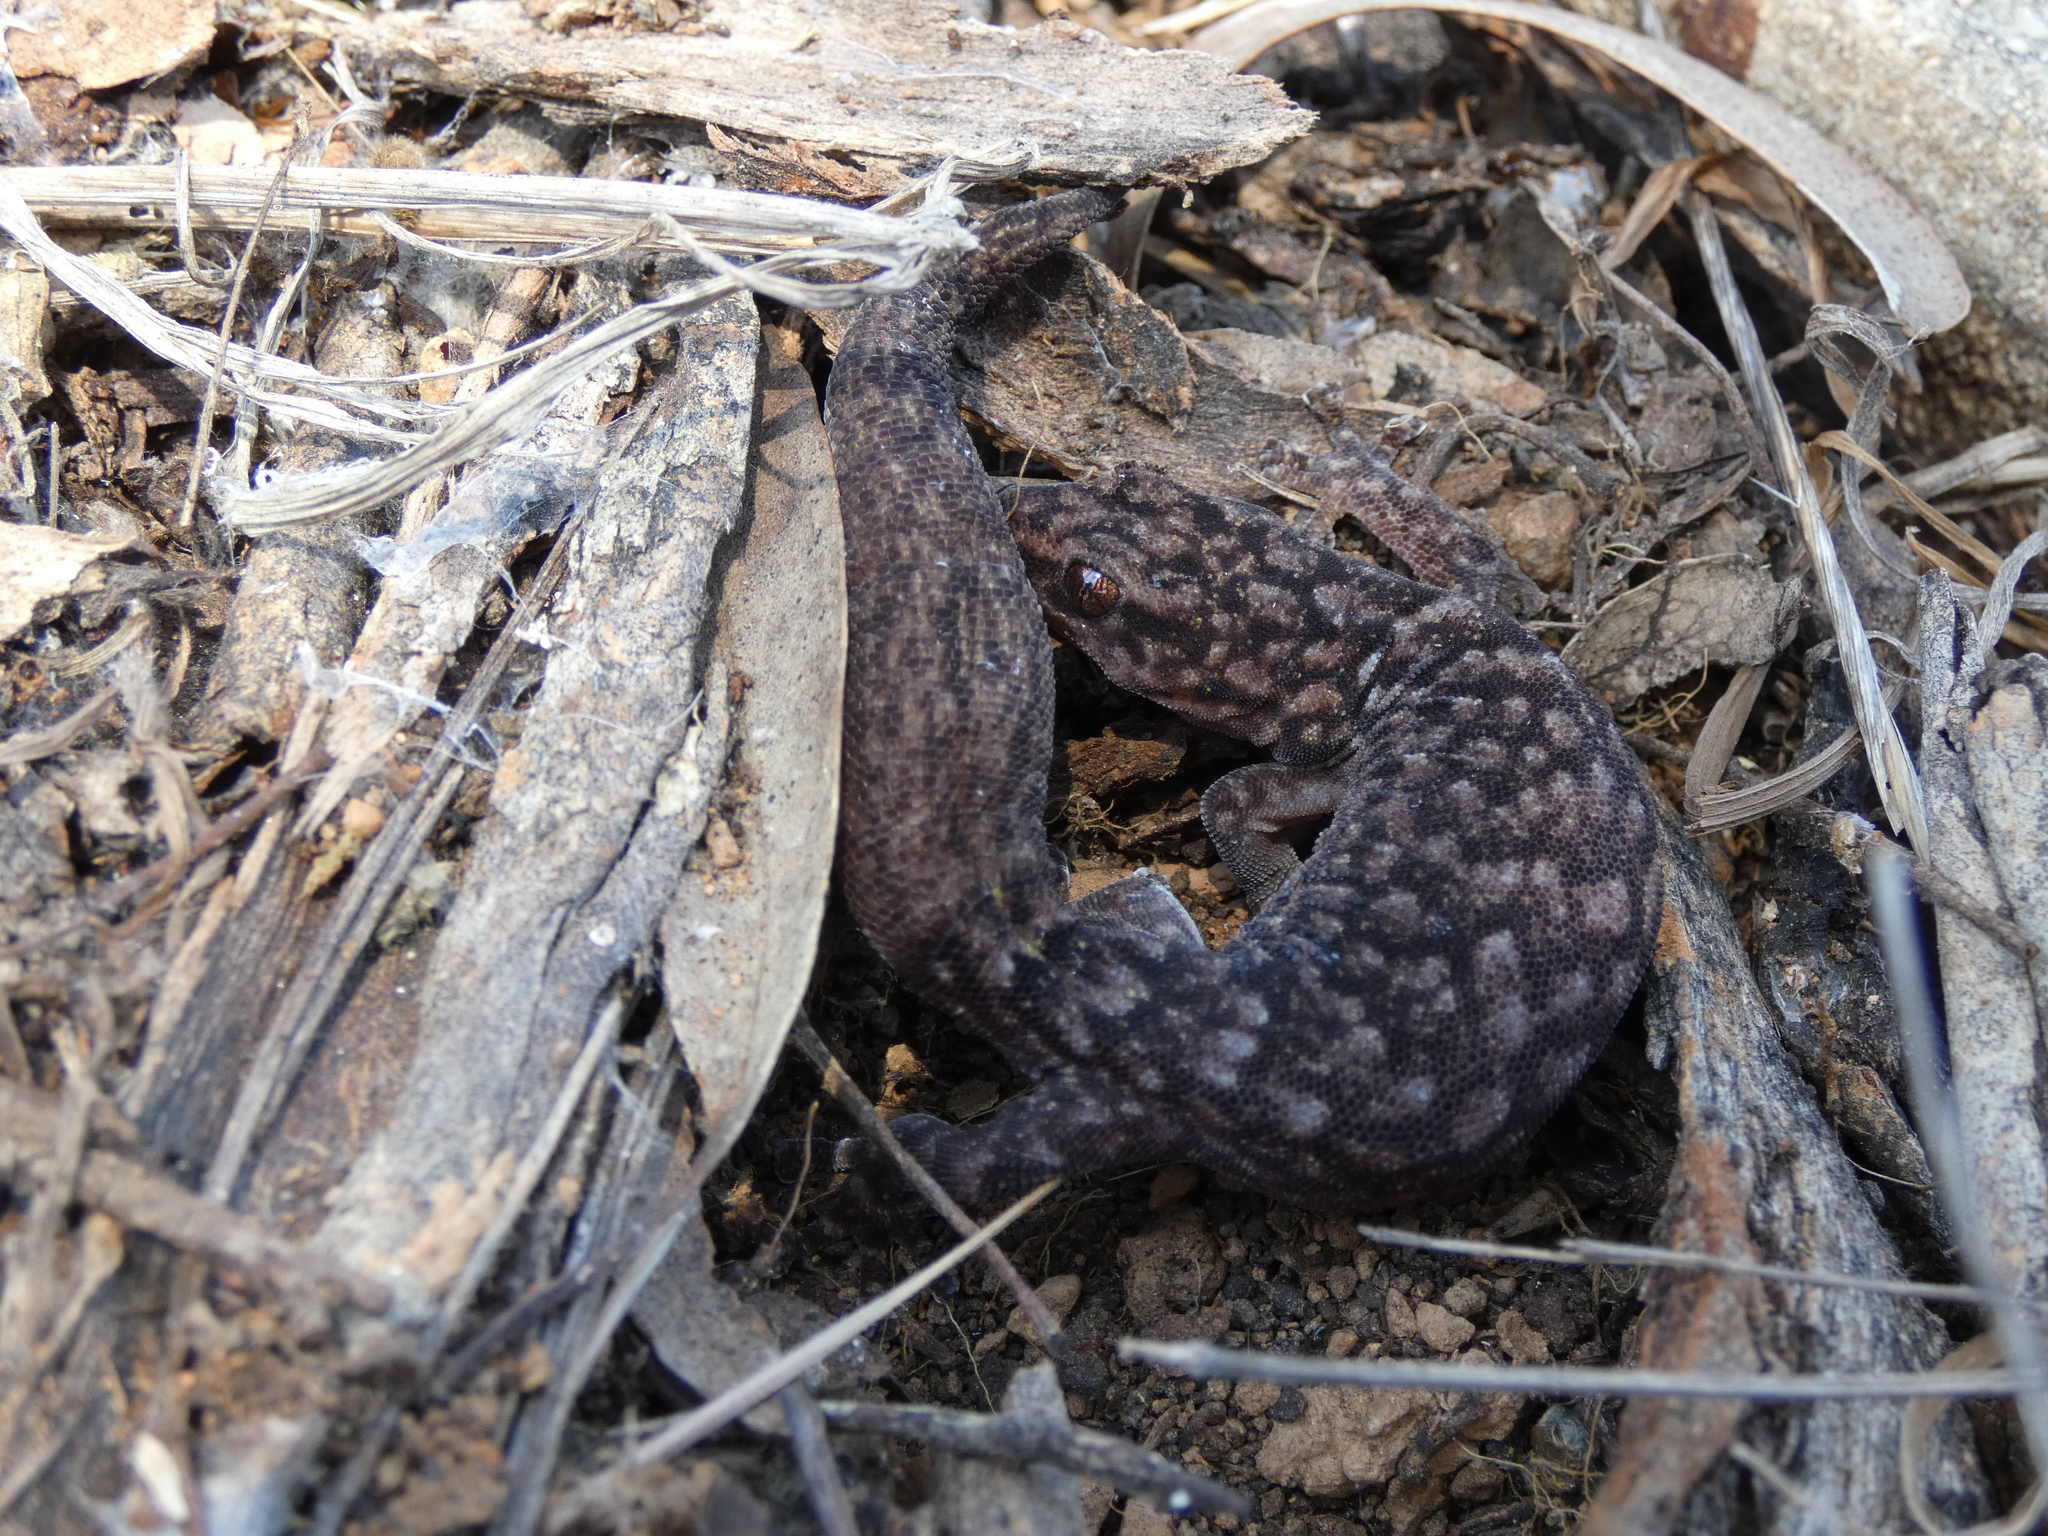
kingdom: Animalia
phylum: Chordata
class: Squamata
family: Gekkonidae
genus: Christinus
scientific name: Christinus marmoratus
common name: Marbled gecko
